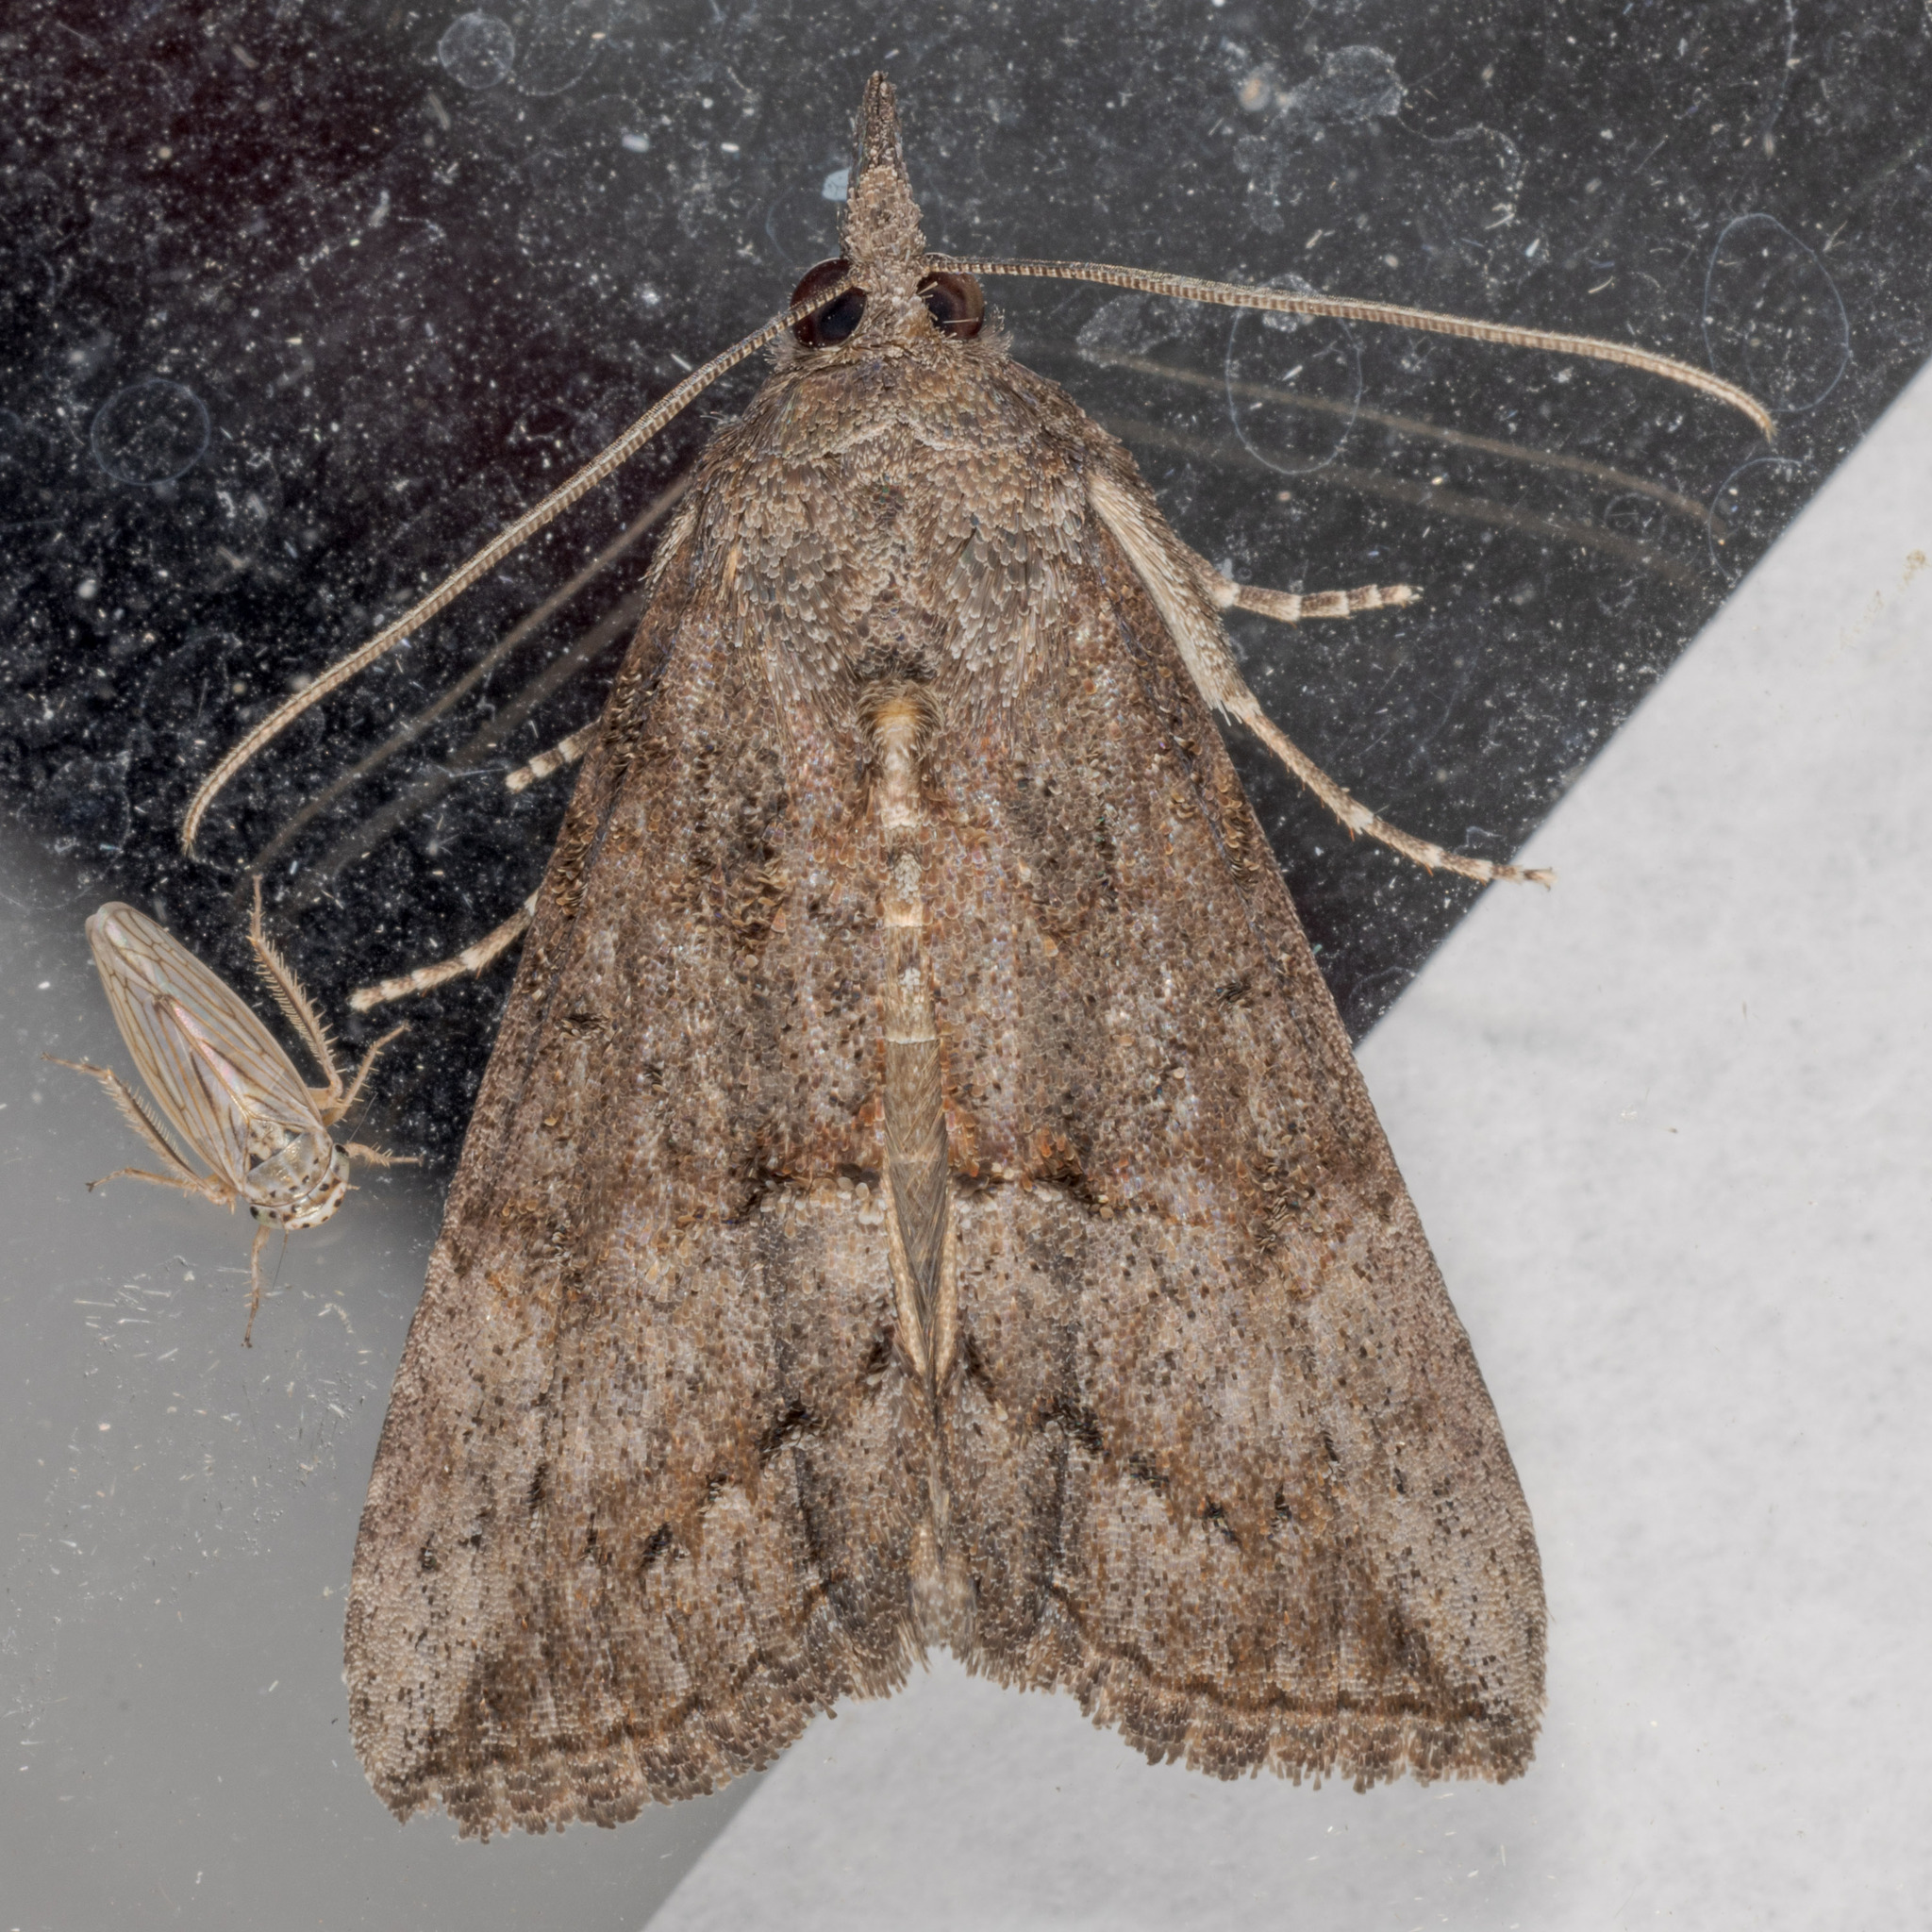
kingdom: Animalia
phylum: Arthropoda
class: Insecta
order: Lepidoptera
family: Erebidae
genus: Hypena
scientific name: Hypena scabra
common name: Green cloverworm
